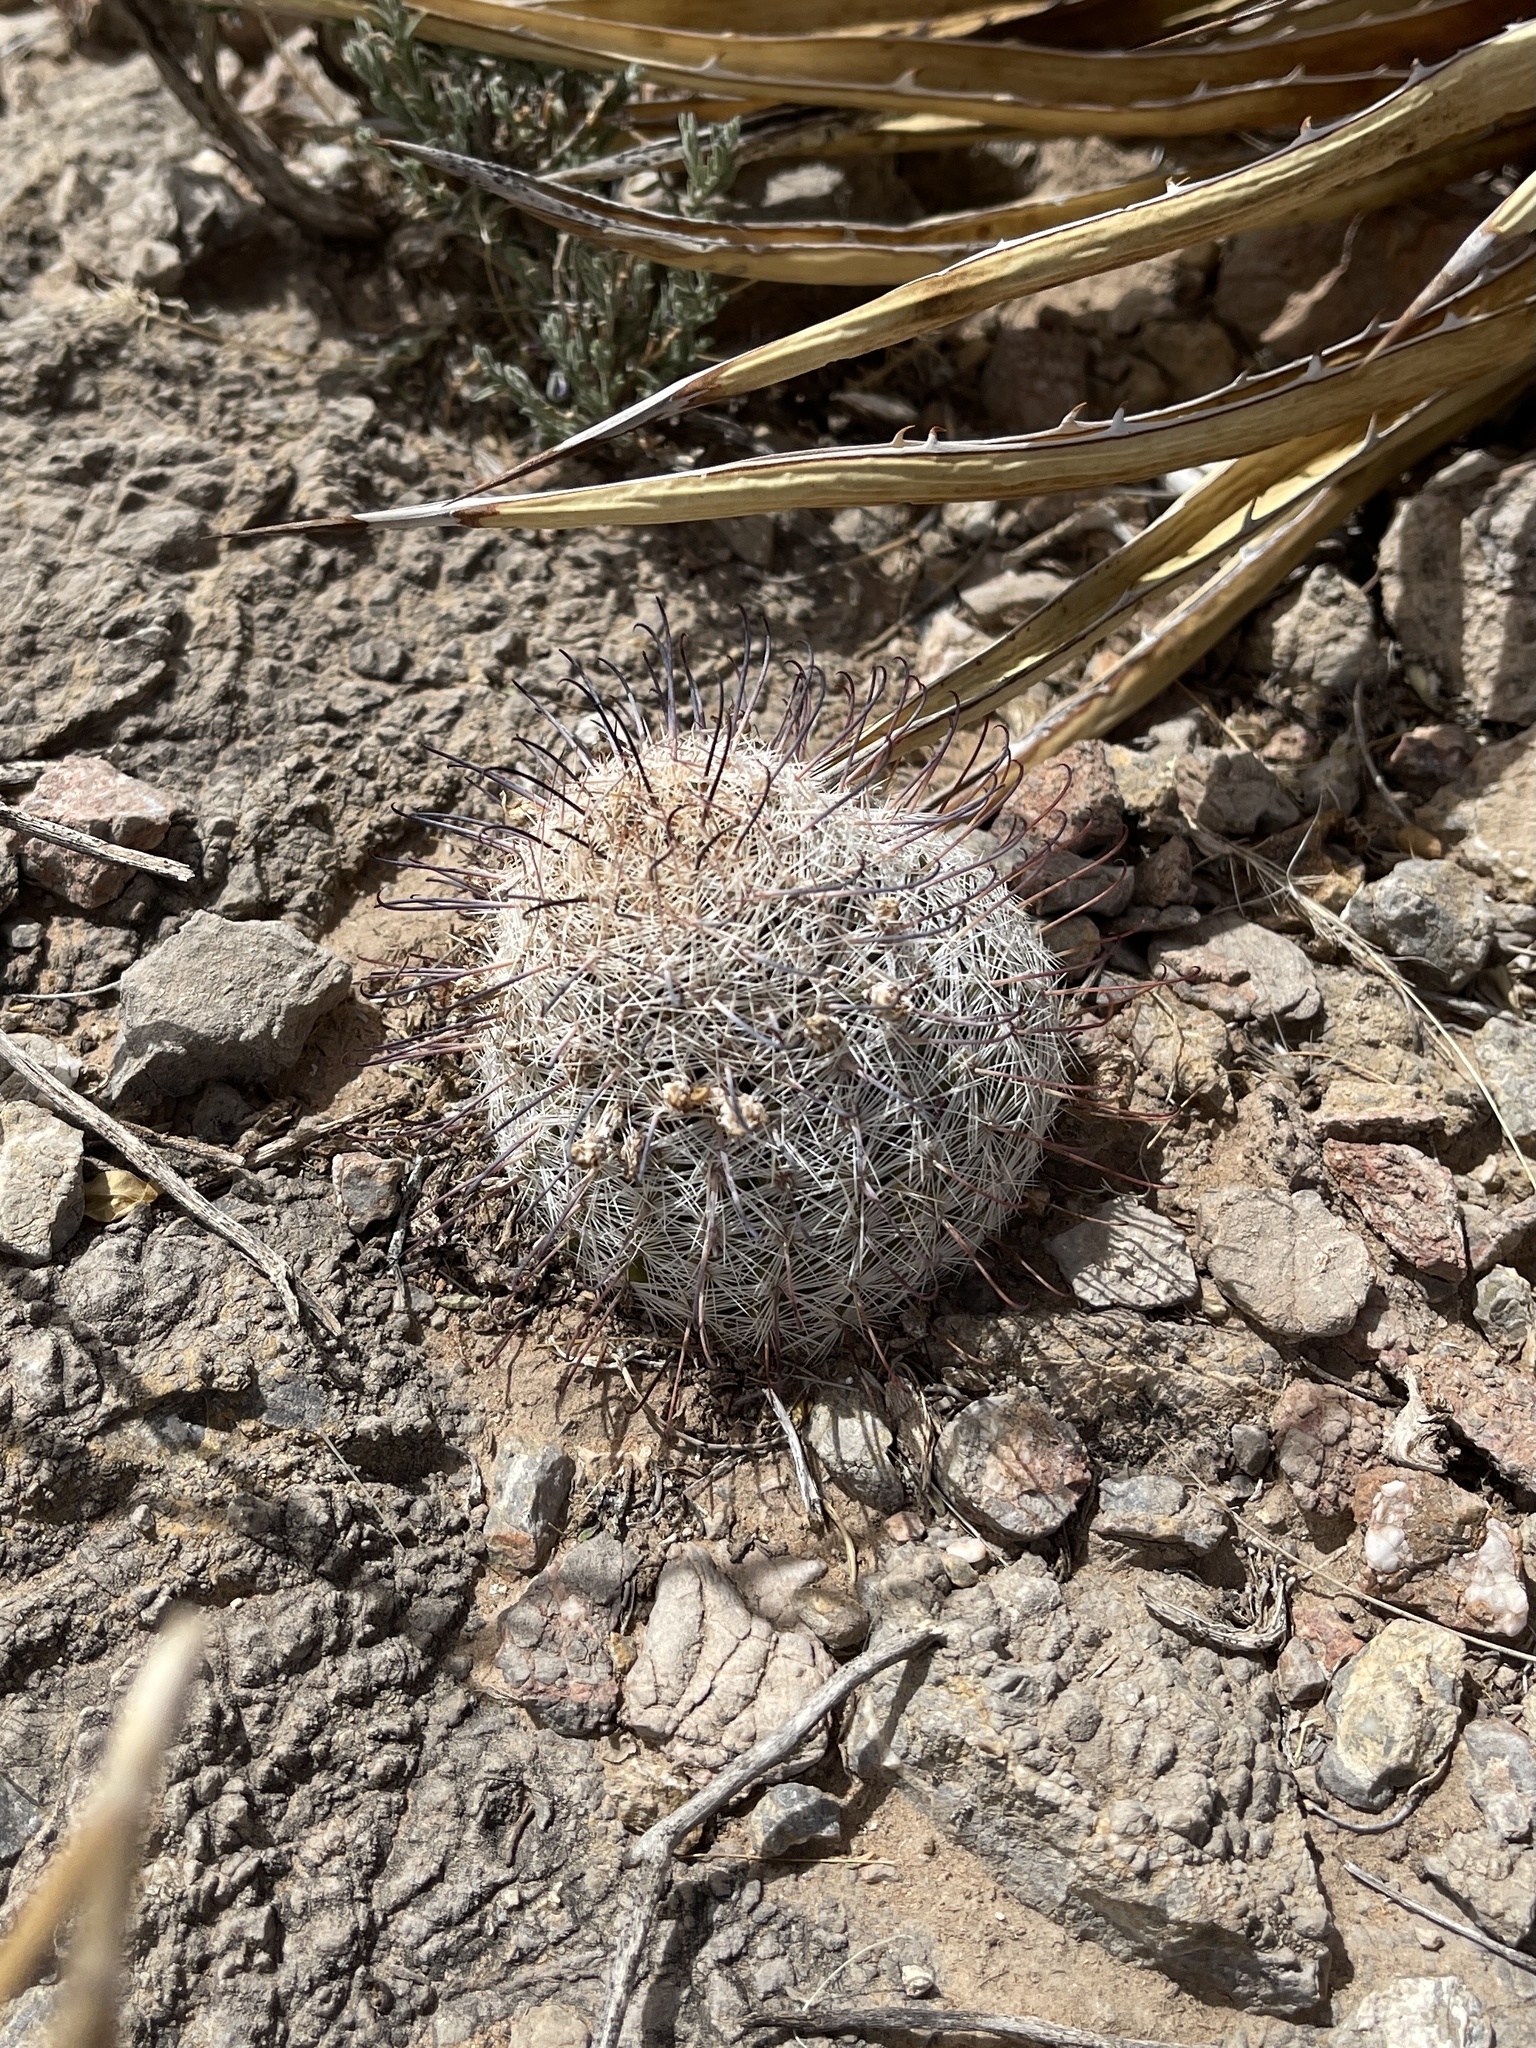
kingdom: Plantae
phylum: Tracheophyta
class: Magnoliopsida
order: Caryophyllales
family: Cactaceae
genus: Cochemiea
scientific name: Cochemiea grahamii
